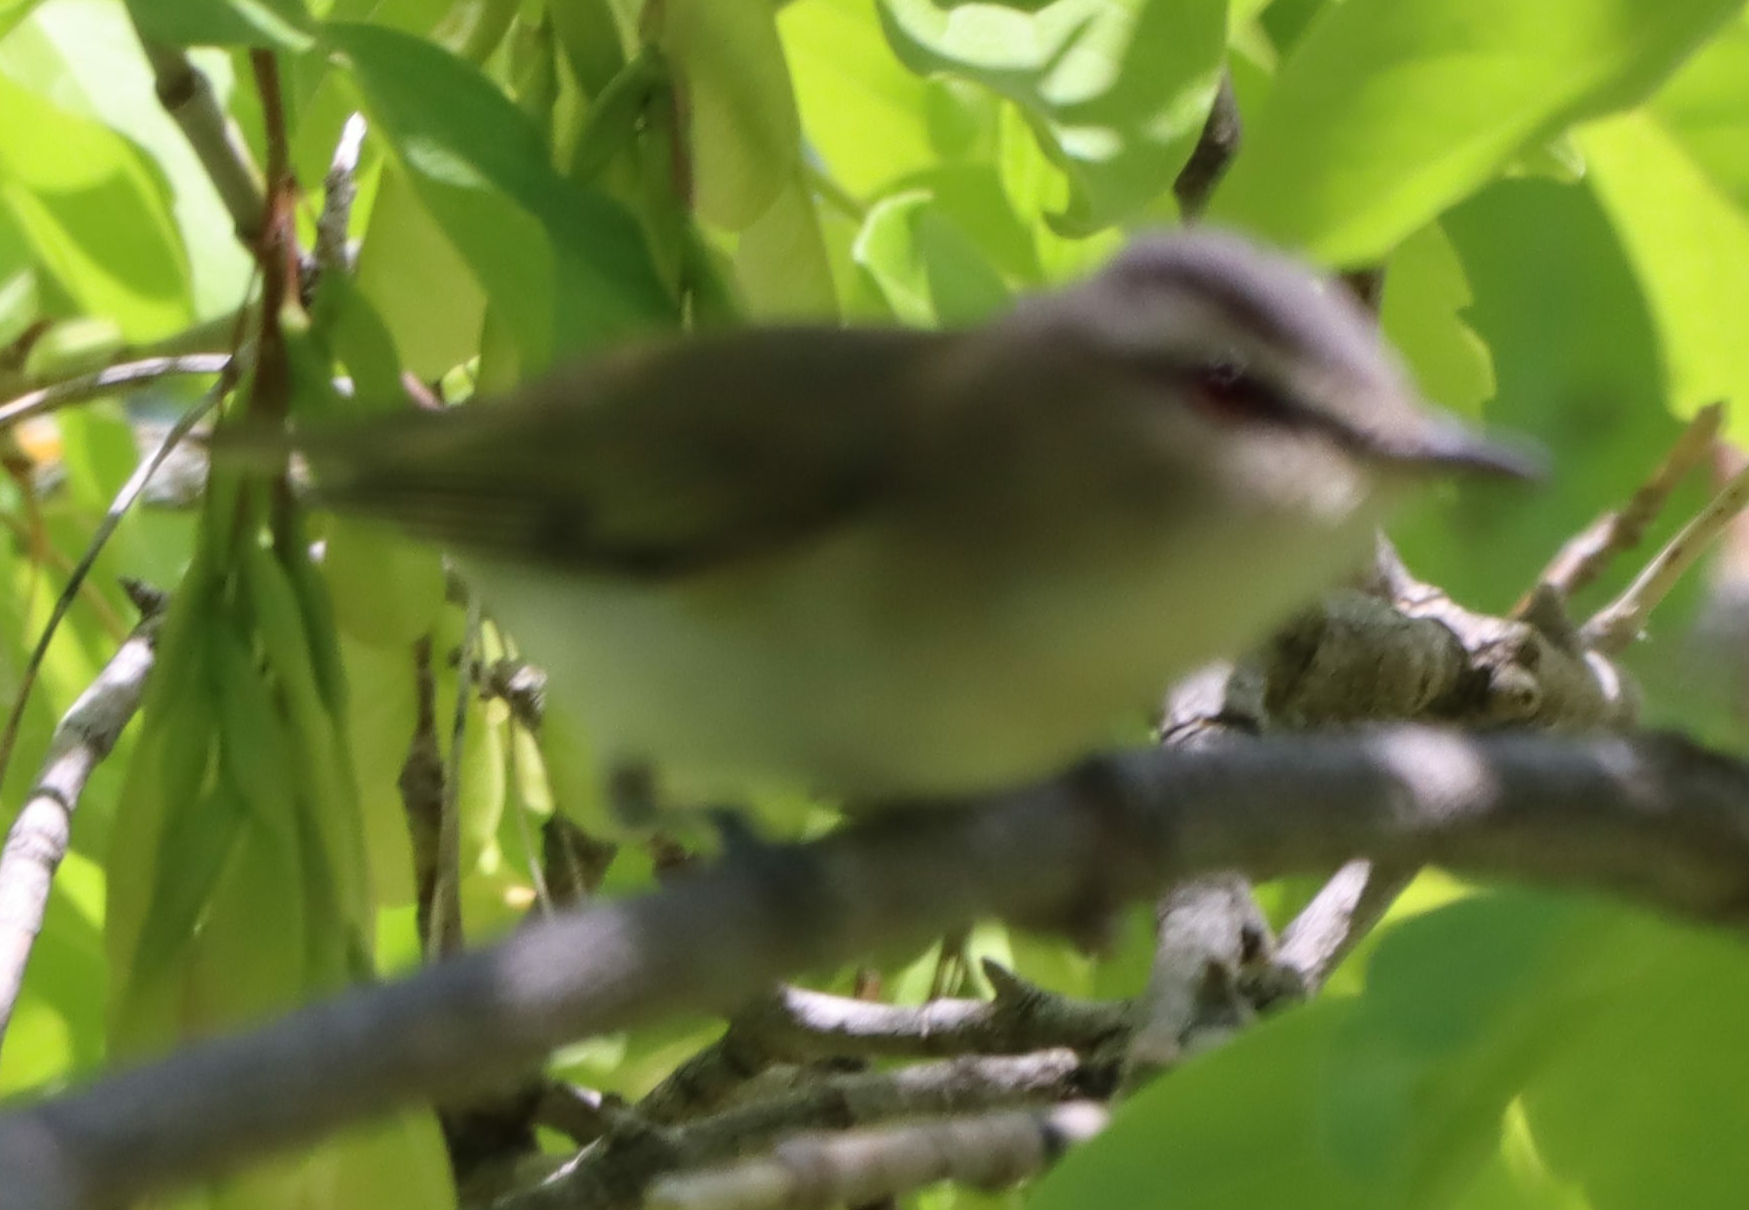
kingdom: Animalia
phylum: Chordata
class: Aves
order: Passeriformes
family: Vireonidae
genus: Vireo
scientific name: Vireo olivaceus
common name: Red-eyed vireo
